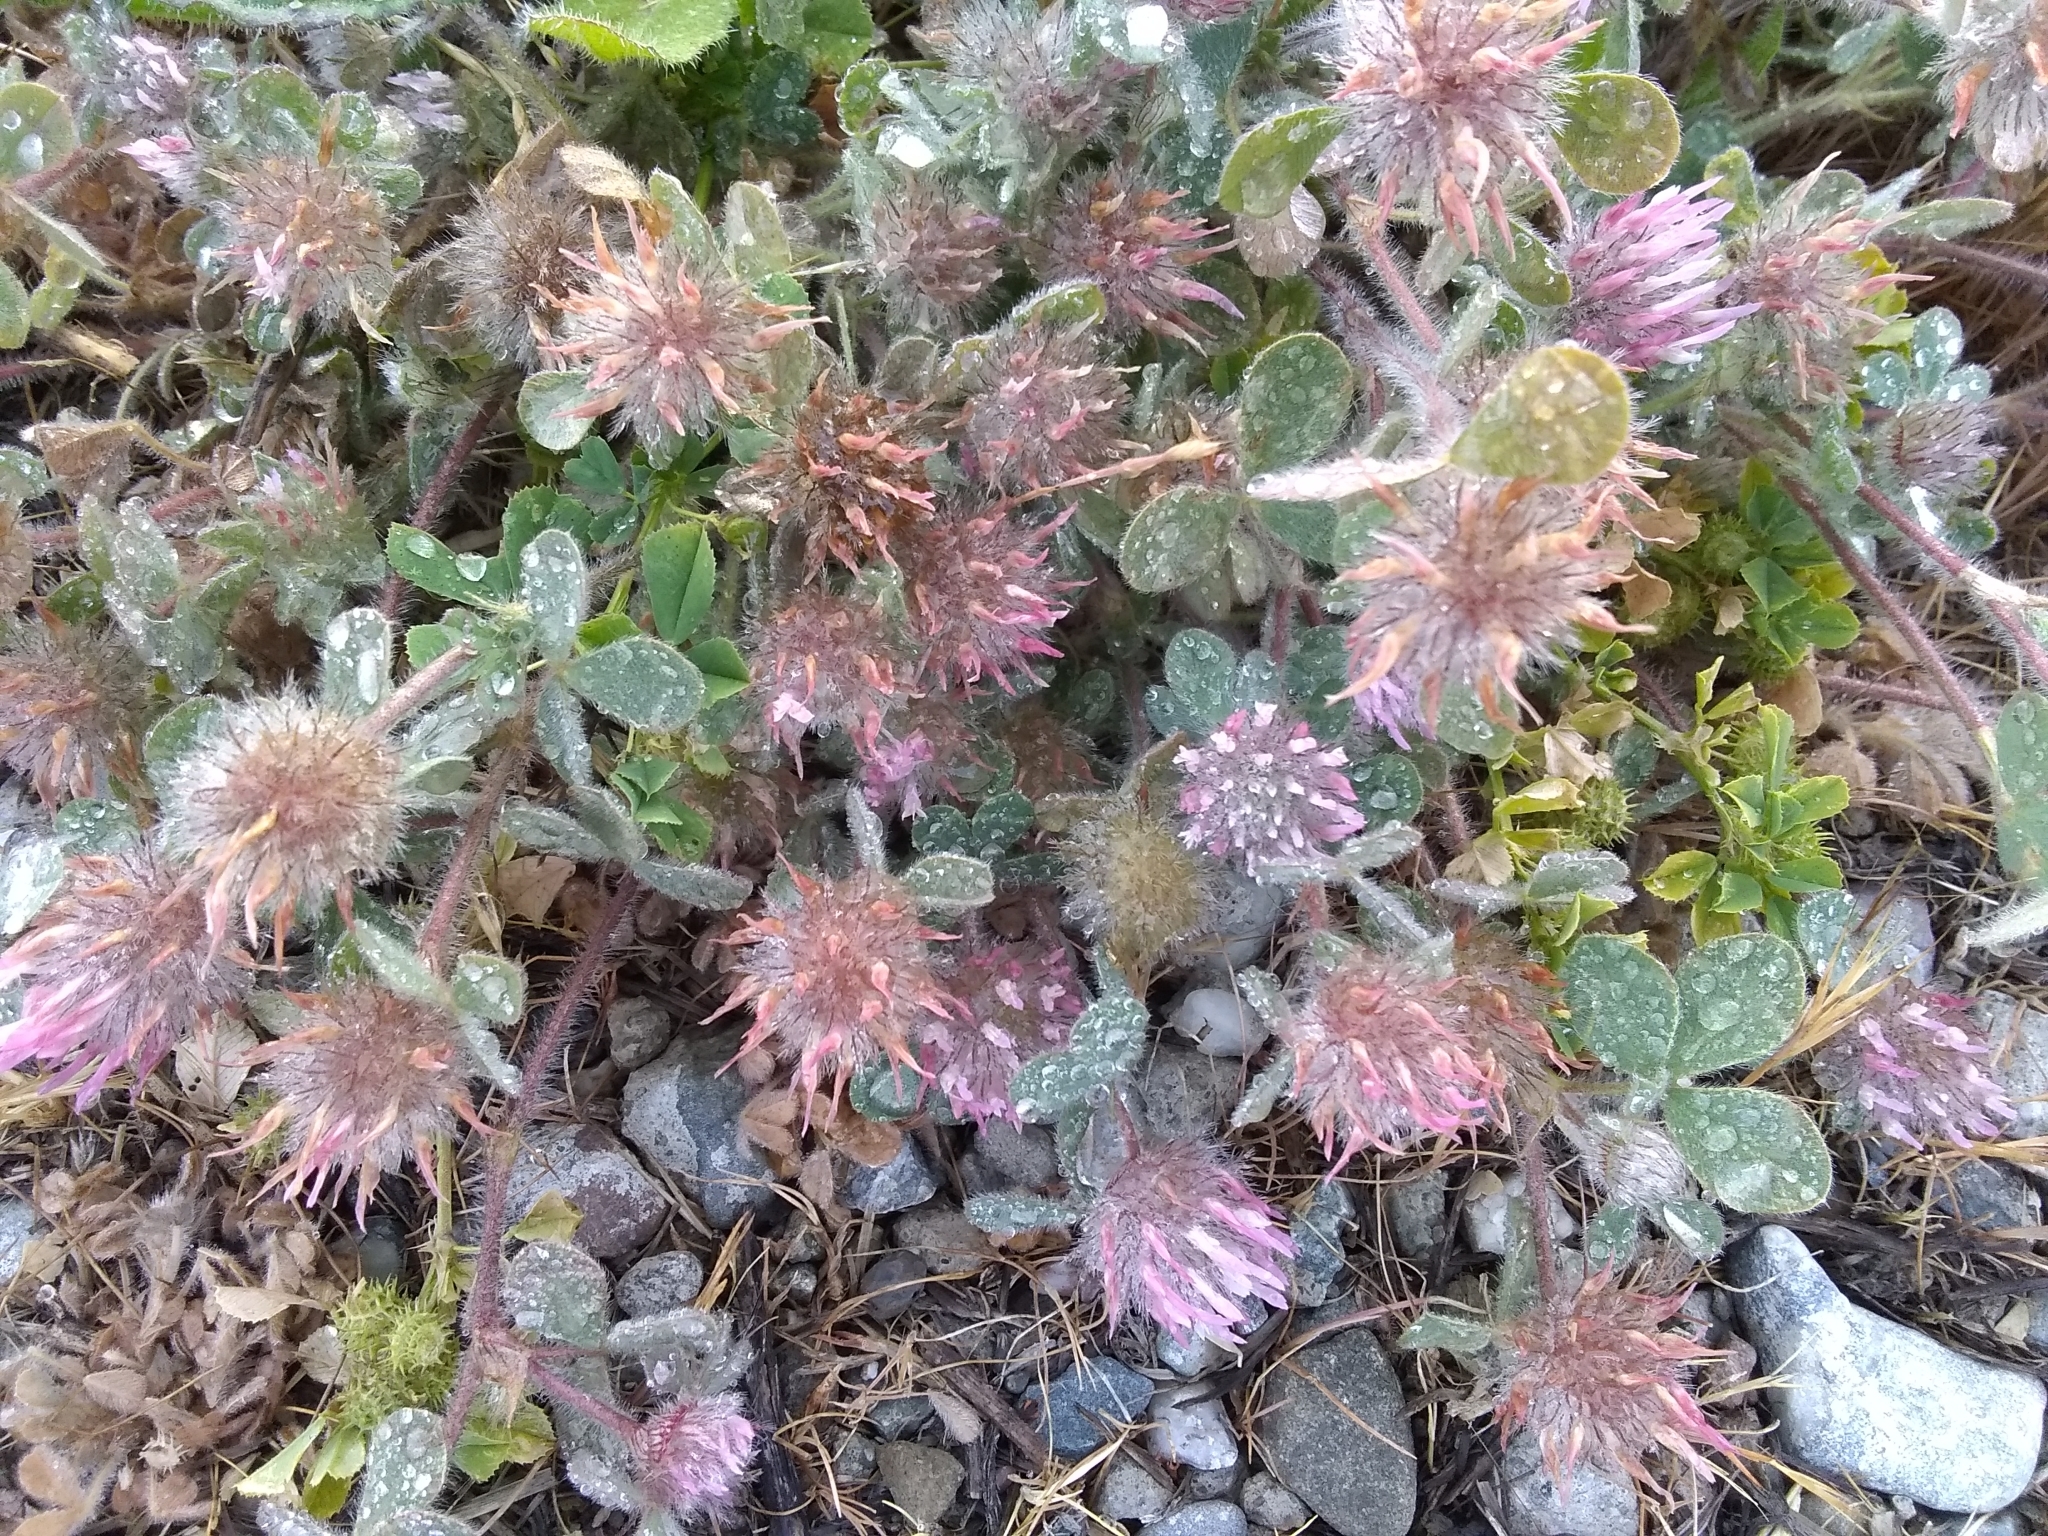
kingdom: Plantae
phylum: Tracheophyta
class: Magnoliopsida
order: Fabales
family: Fabaceae
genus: Trifolium
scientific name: Trifolium hirtum
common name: Rose clover
